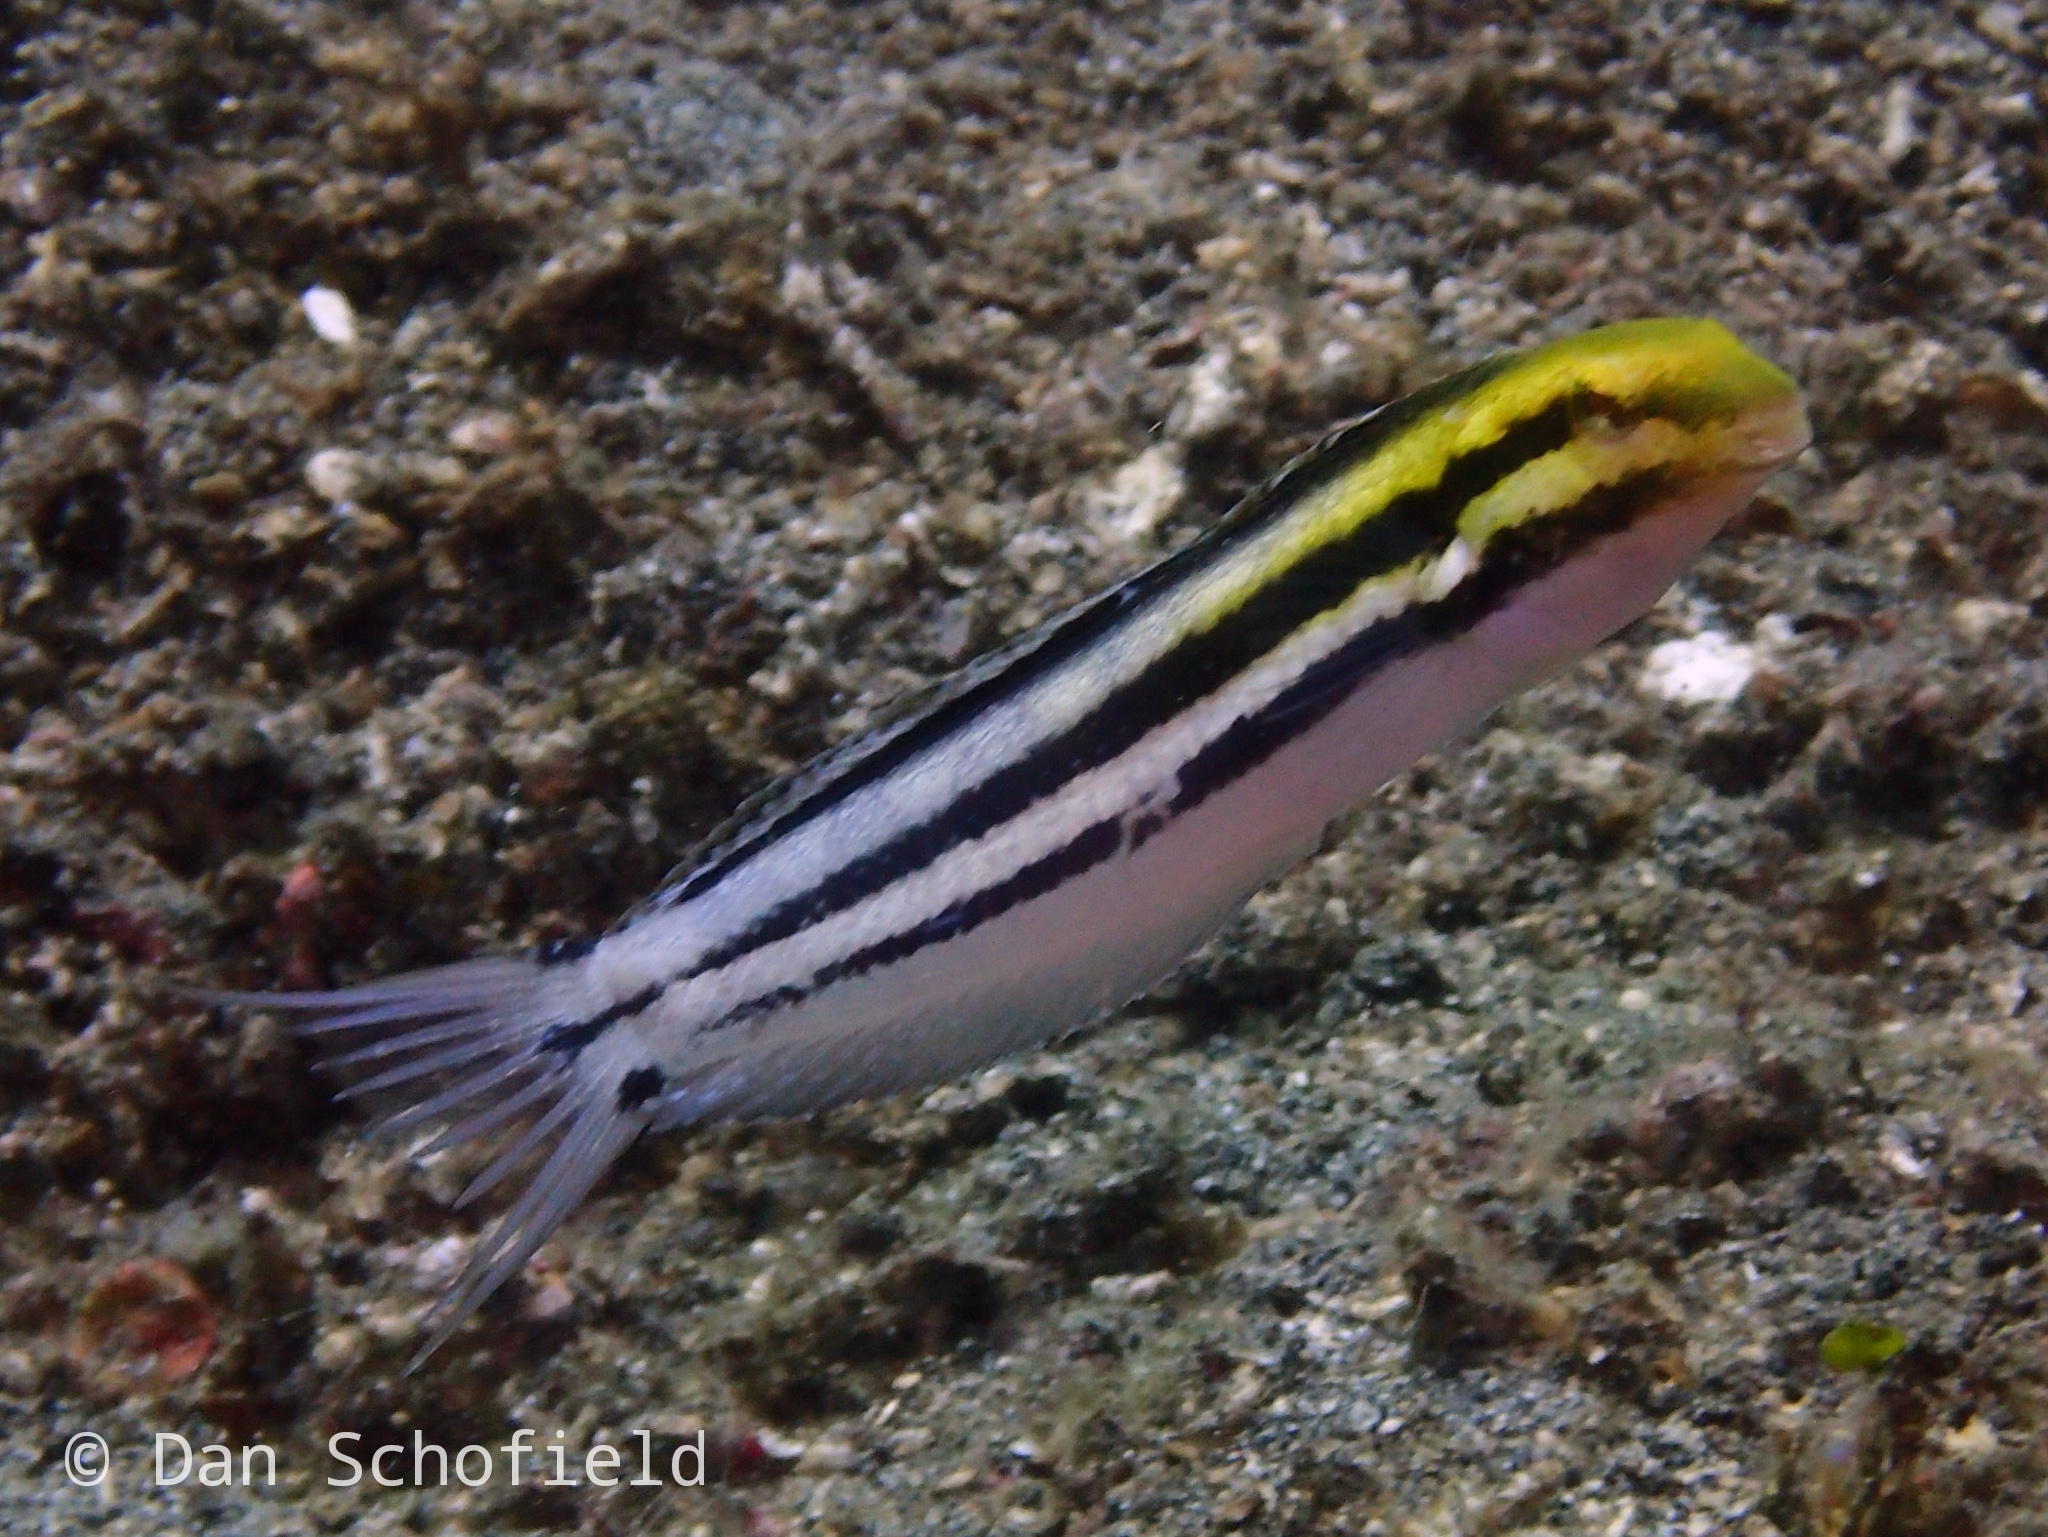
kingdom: Animalia
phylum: Chordata
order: Perciformes
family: Blenniidae
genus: Petroscirtes
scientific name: Petroscirtes breviceps
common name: Short-head sabretooth blenny
